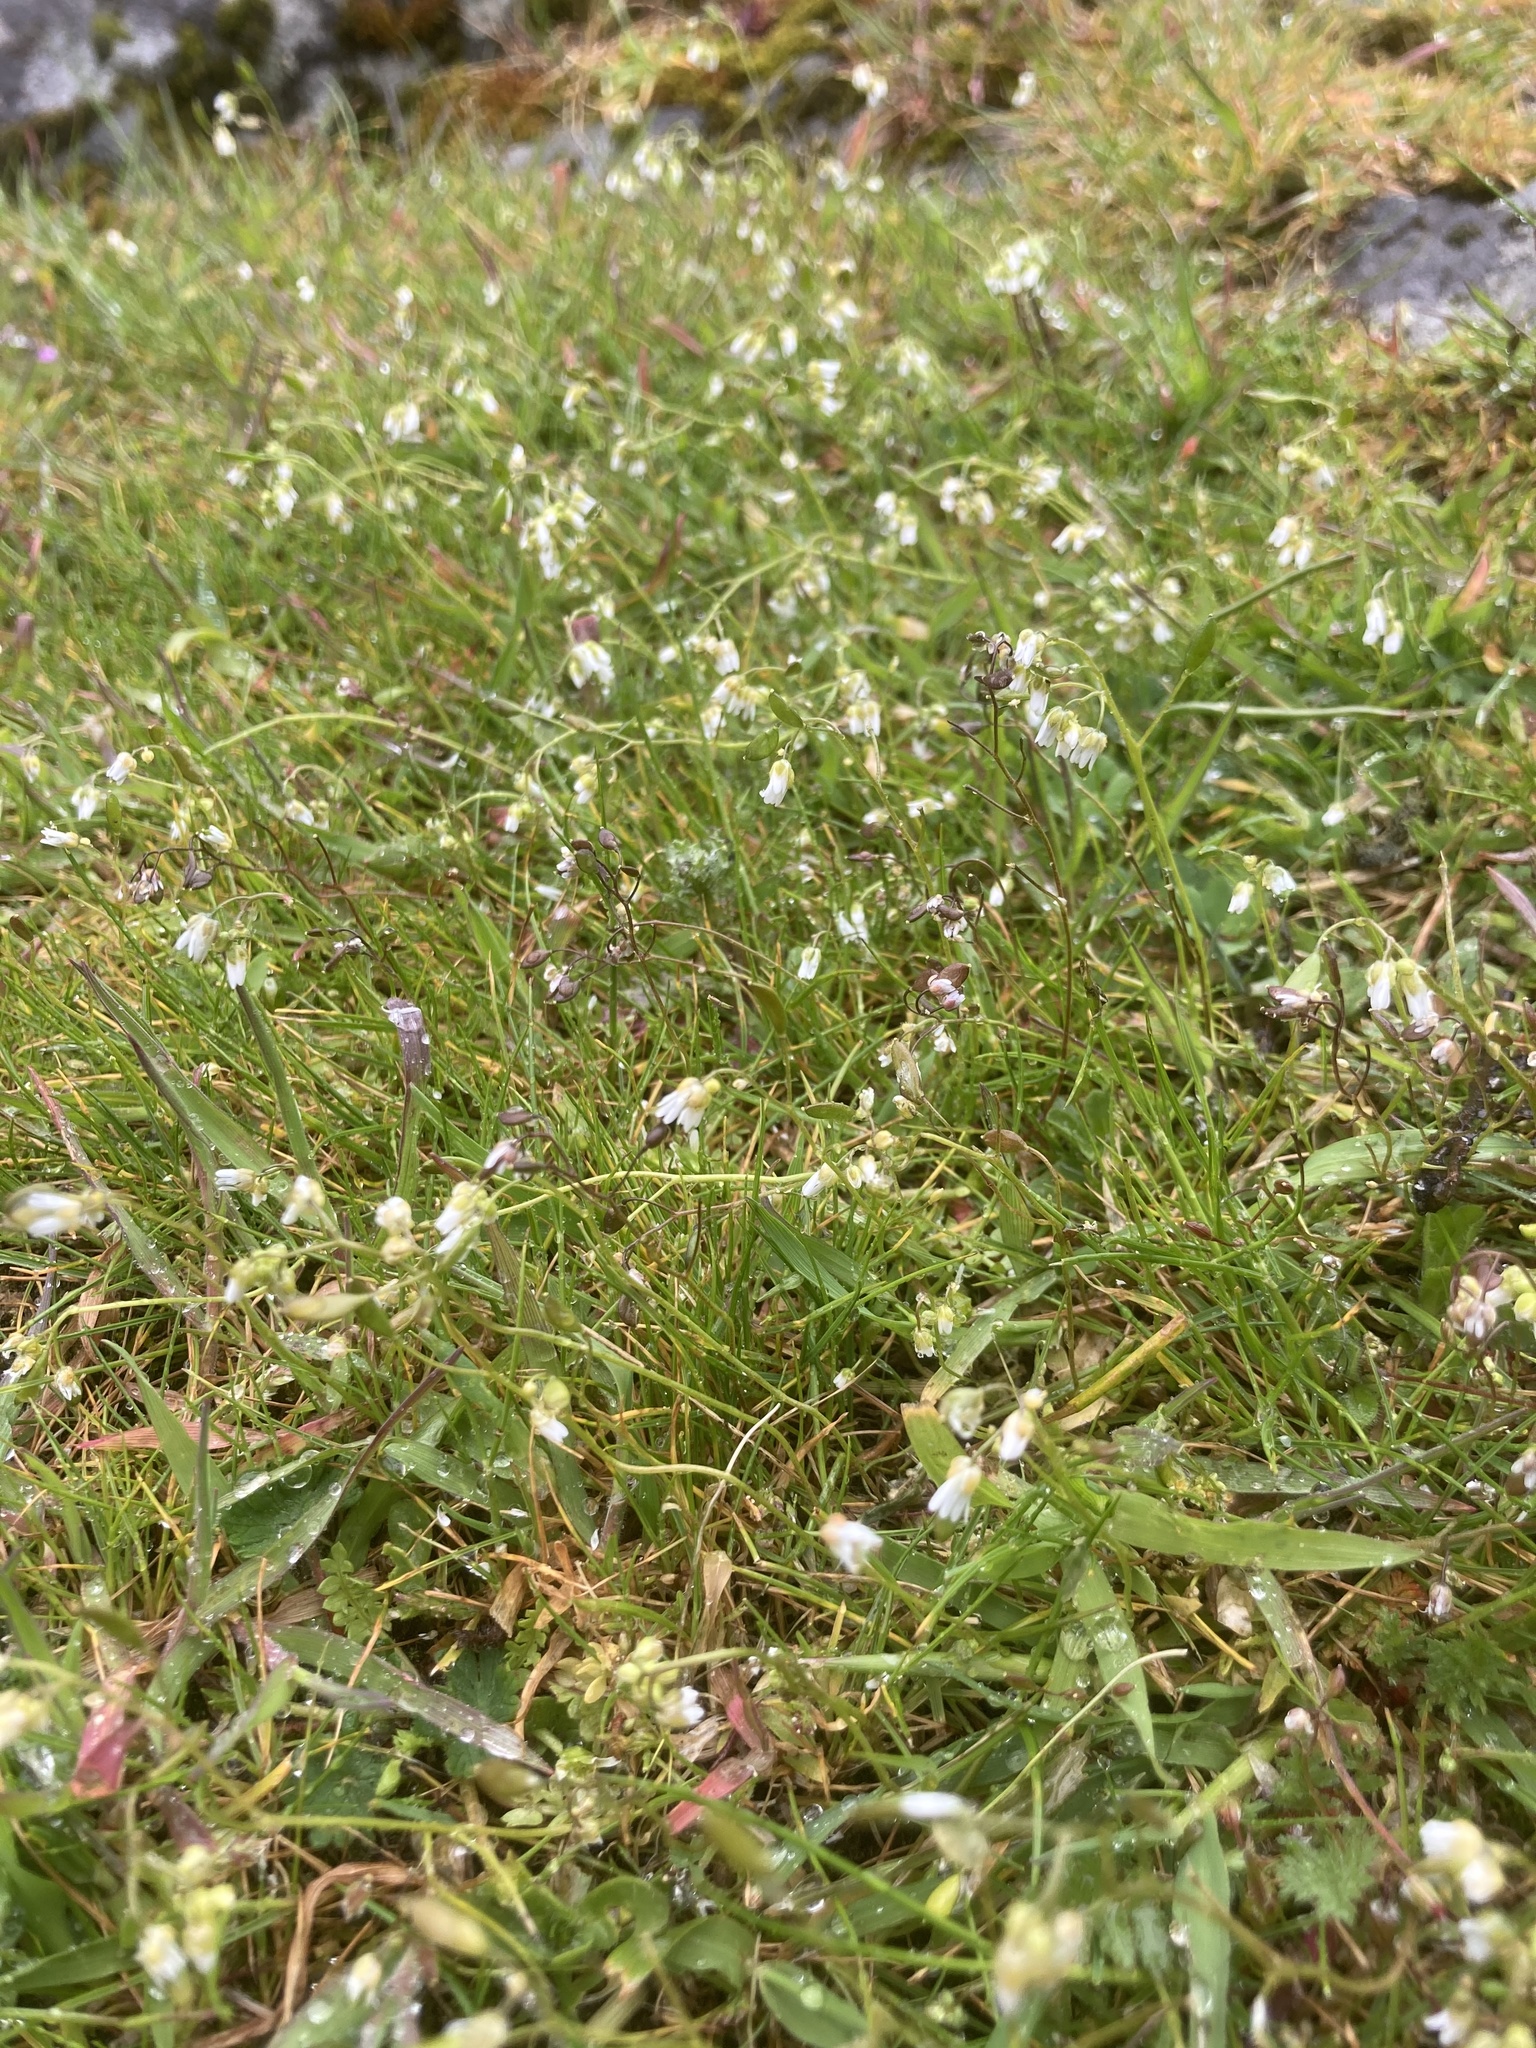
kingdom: Plantae
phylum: Tracheophyta
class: Magnoliopsida
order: Brassicales
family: Brassicaceae
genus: Draba
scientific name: Draba verna
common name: Spring draba
